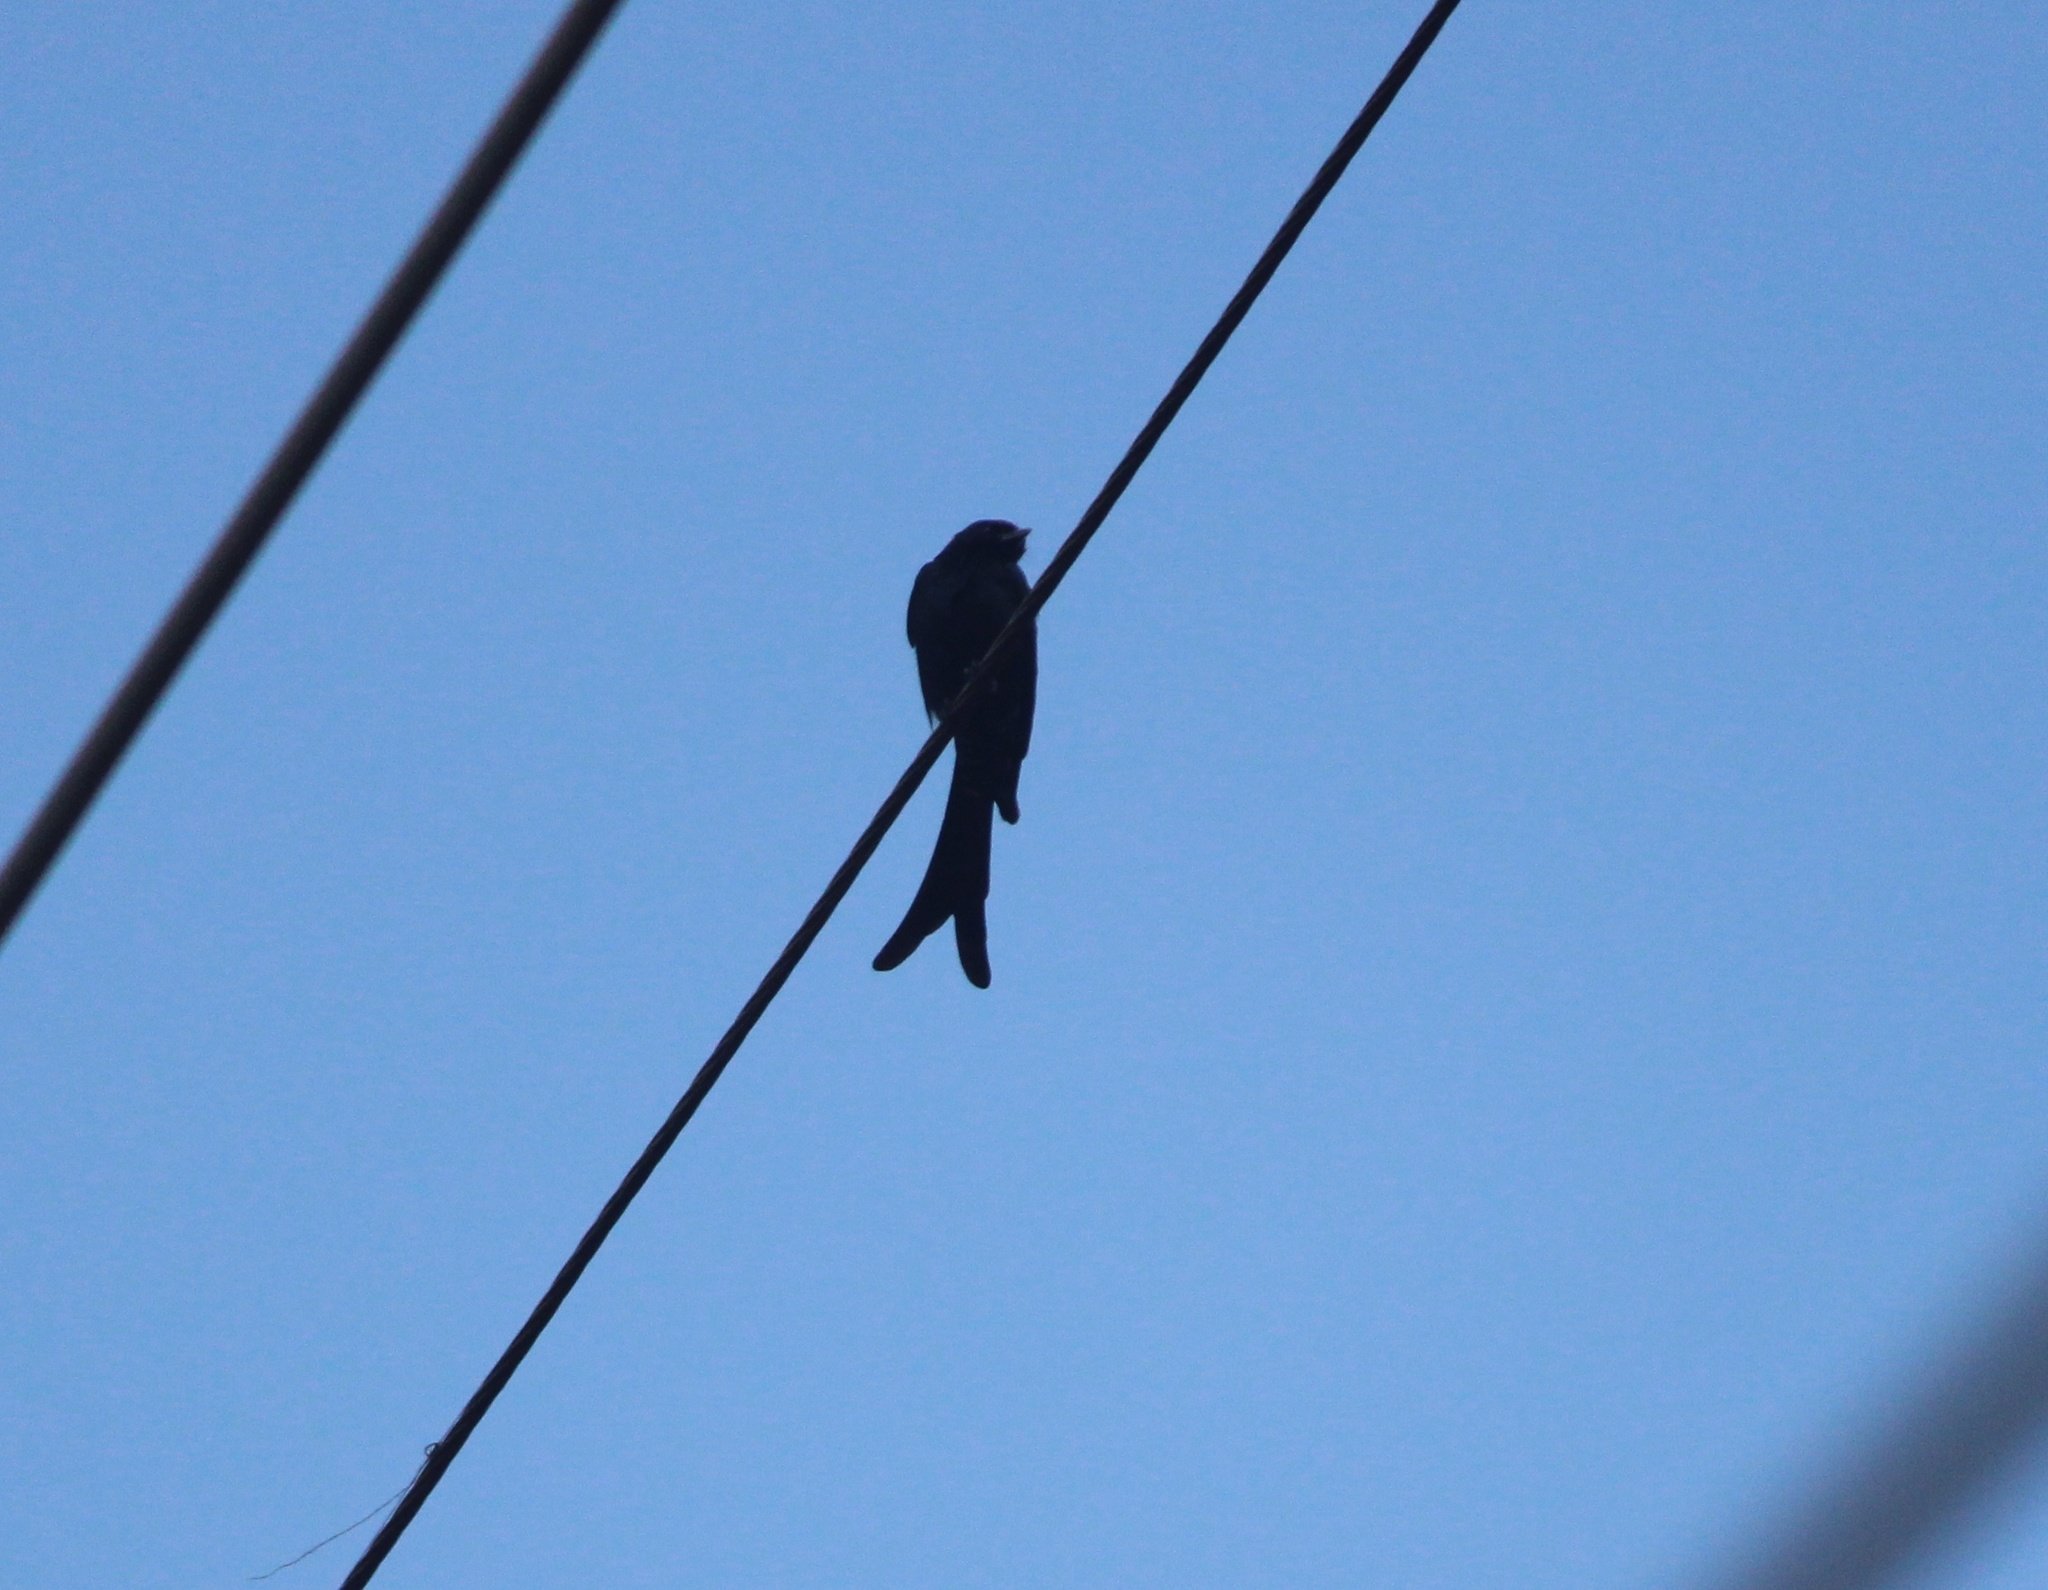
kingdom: Animalia
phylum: Chordata
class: Aves
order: Passeriformes
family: Dicruridae
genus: Dicrurus
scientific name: Dicrurus macrocercus
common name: Black drongo
